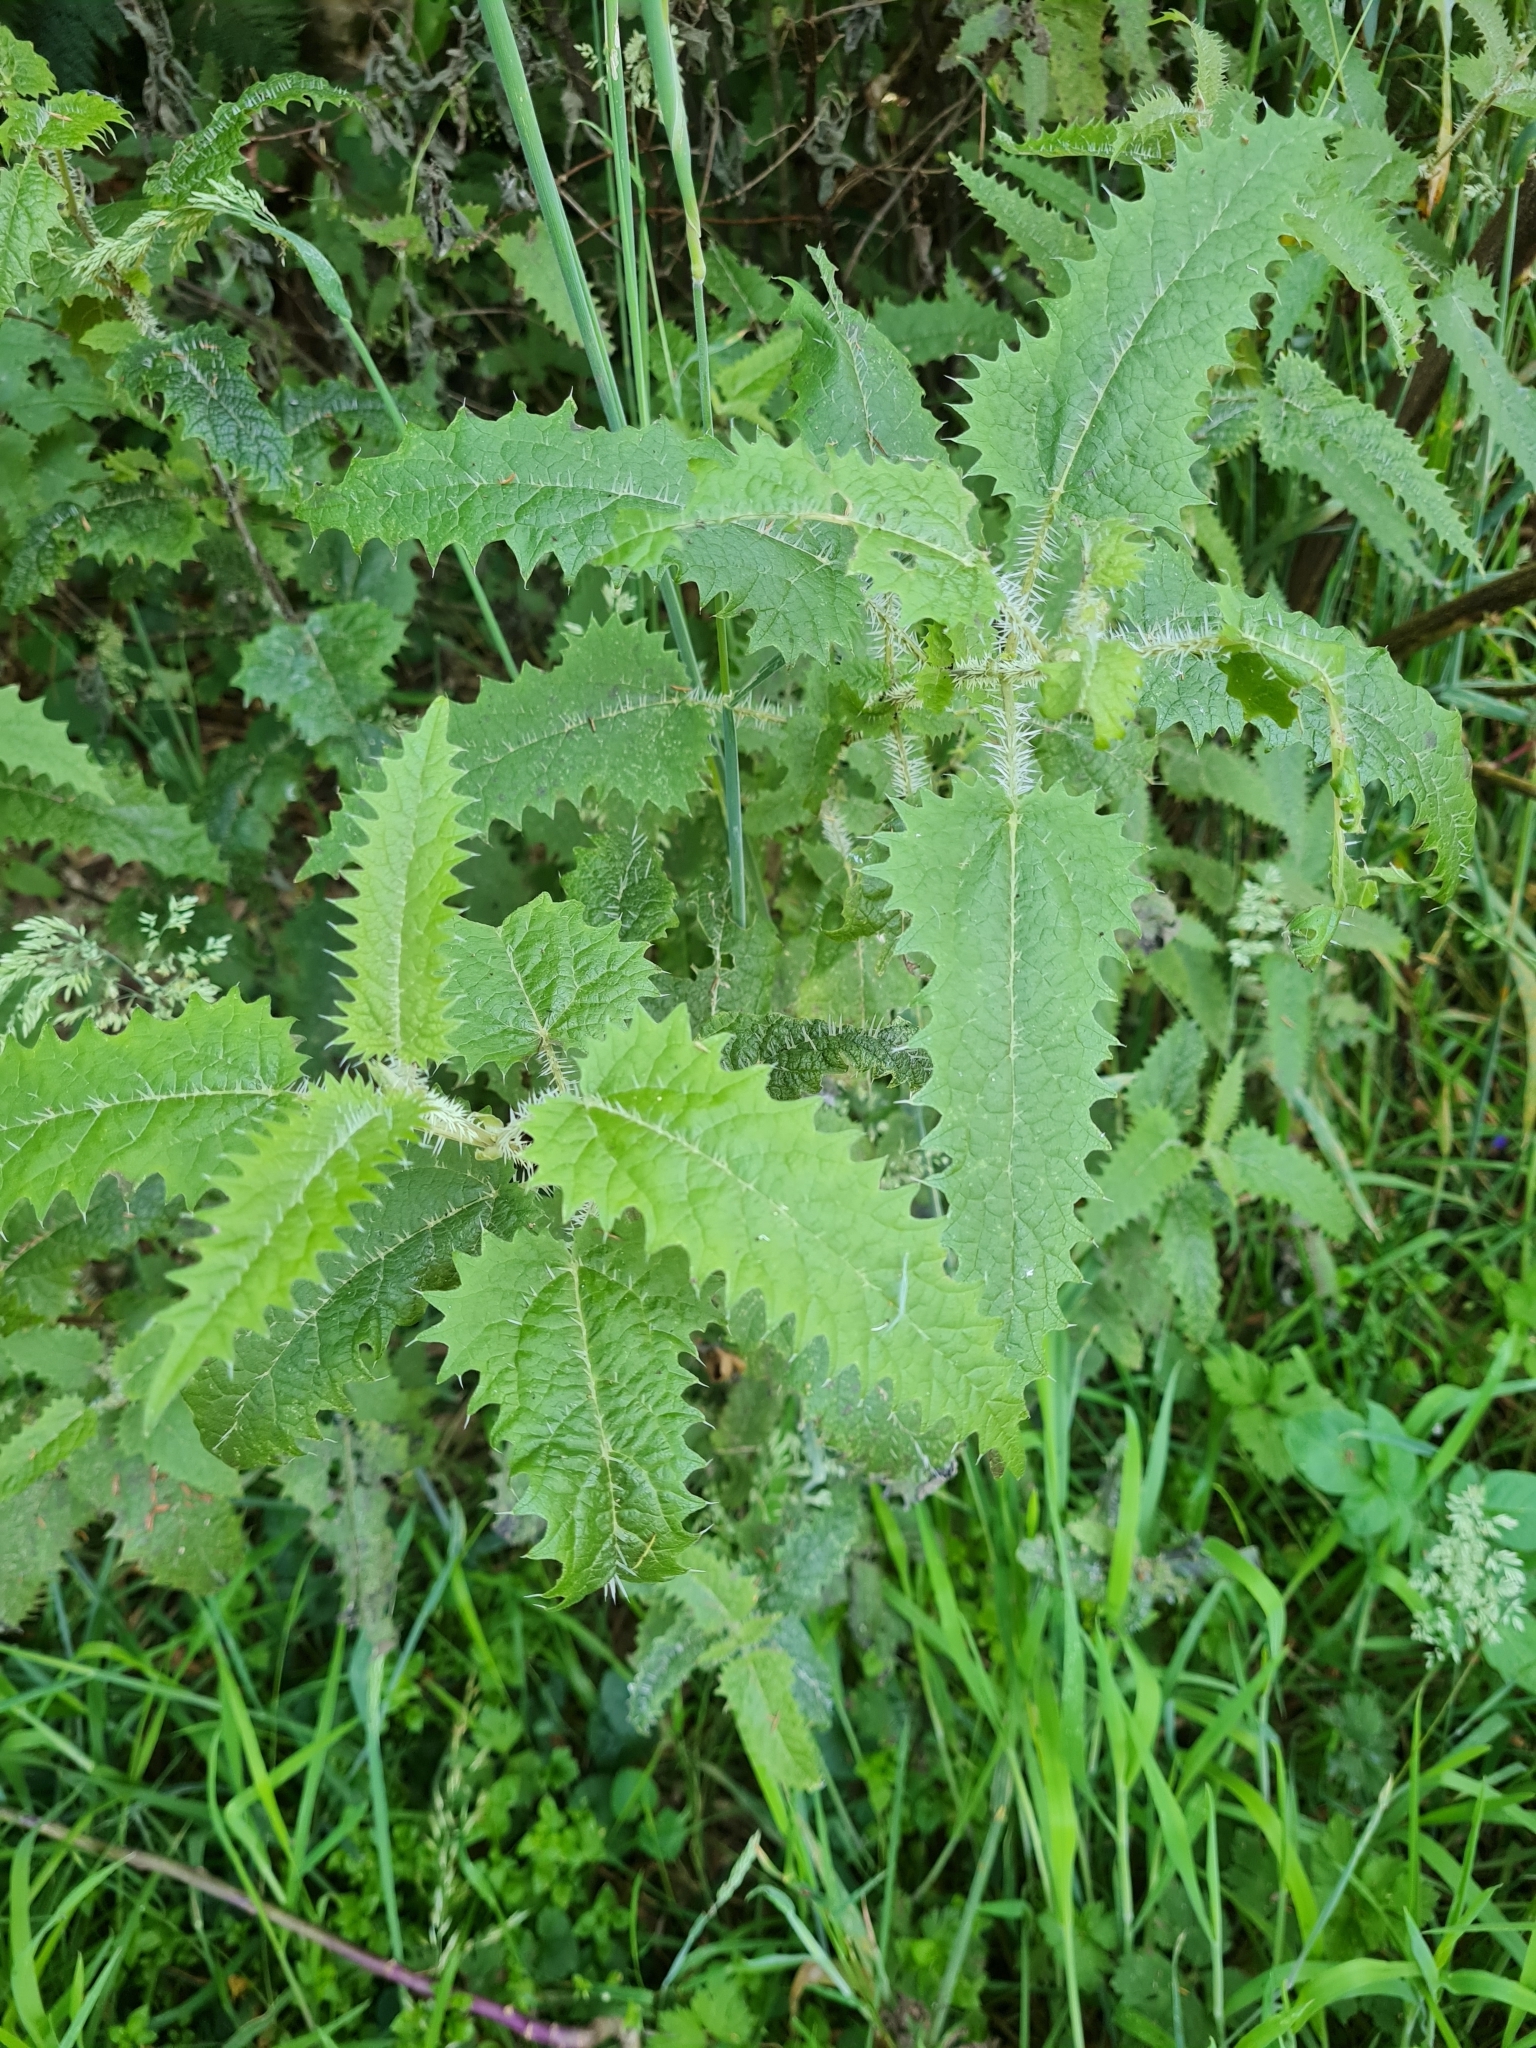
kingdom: Plantae
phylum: Tracheophyta
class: Magnoliopsida
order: Rosales
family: Urticaceae
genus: Urtica
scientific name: Urtica ferox
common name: Tree nettle
